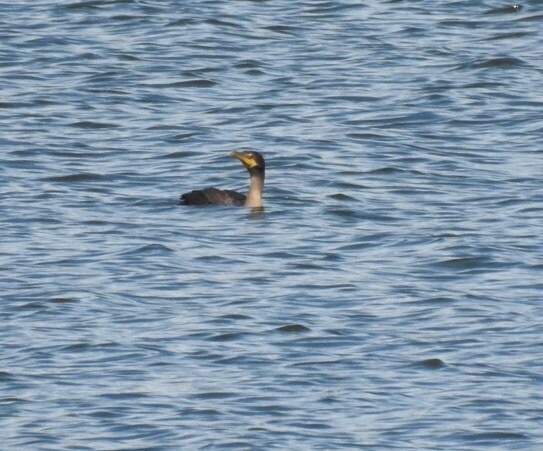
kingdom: Animalia
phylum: Chordata
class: Aves
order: Suliformes
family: Phalacrocoracidae
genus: Phalacrocorax
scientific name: Phalacrocorax auritus
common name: Double-crested cormorant
